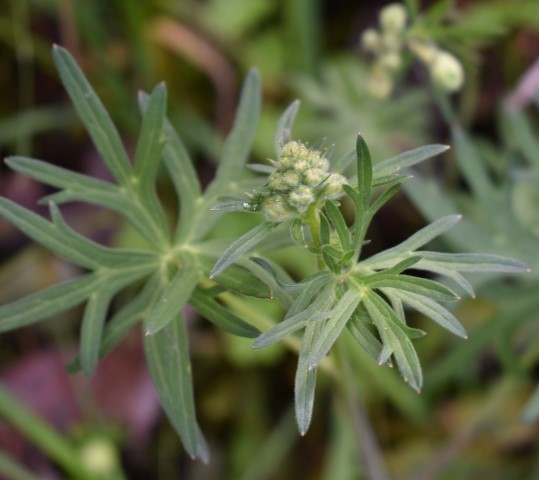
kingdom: Plantae
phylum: Tracheophyta
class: Magnoliopsida
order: Ranunculales
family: Ranunculaceae
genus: Delphinium
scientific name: Delphinium menziesii
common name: Menzies's larkspur
